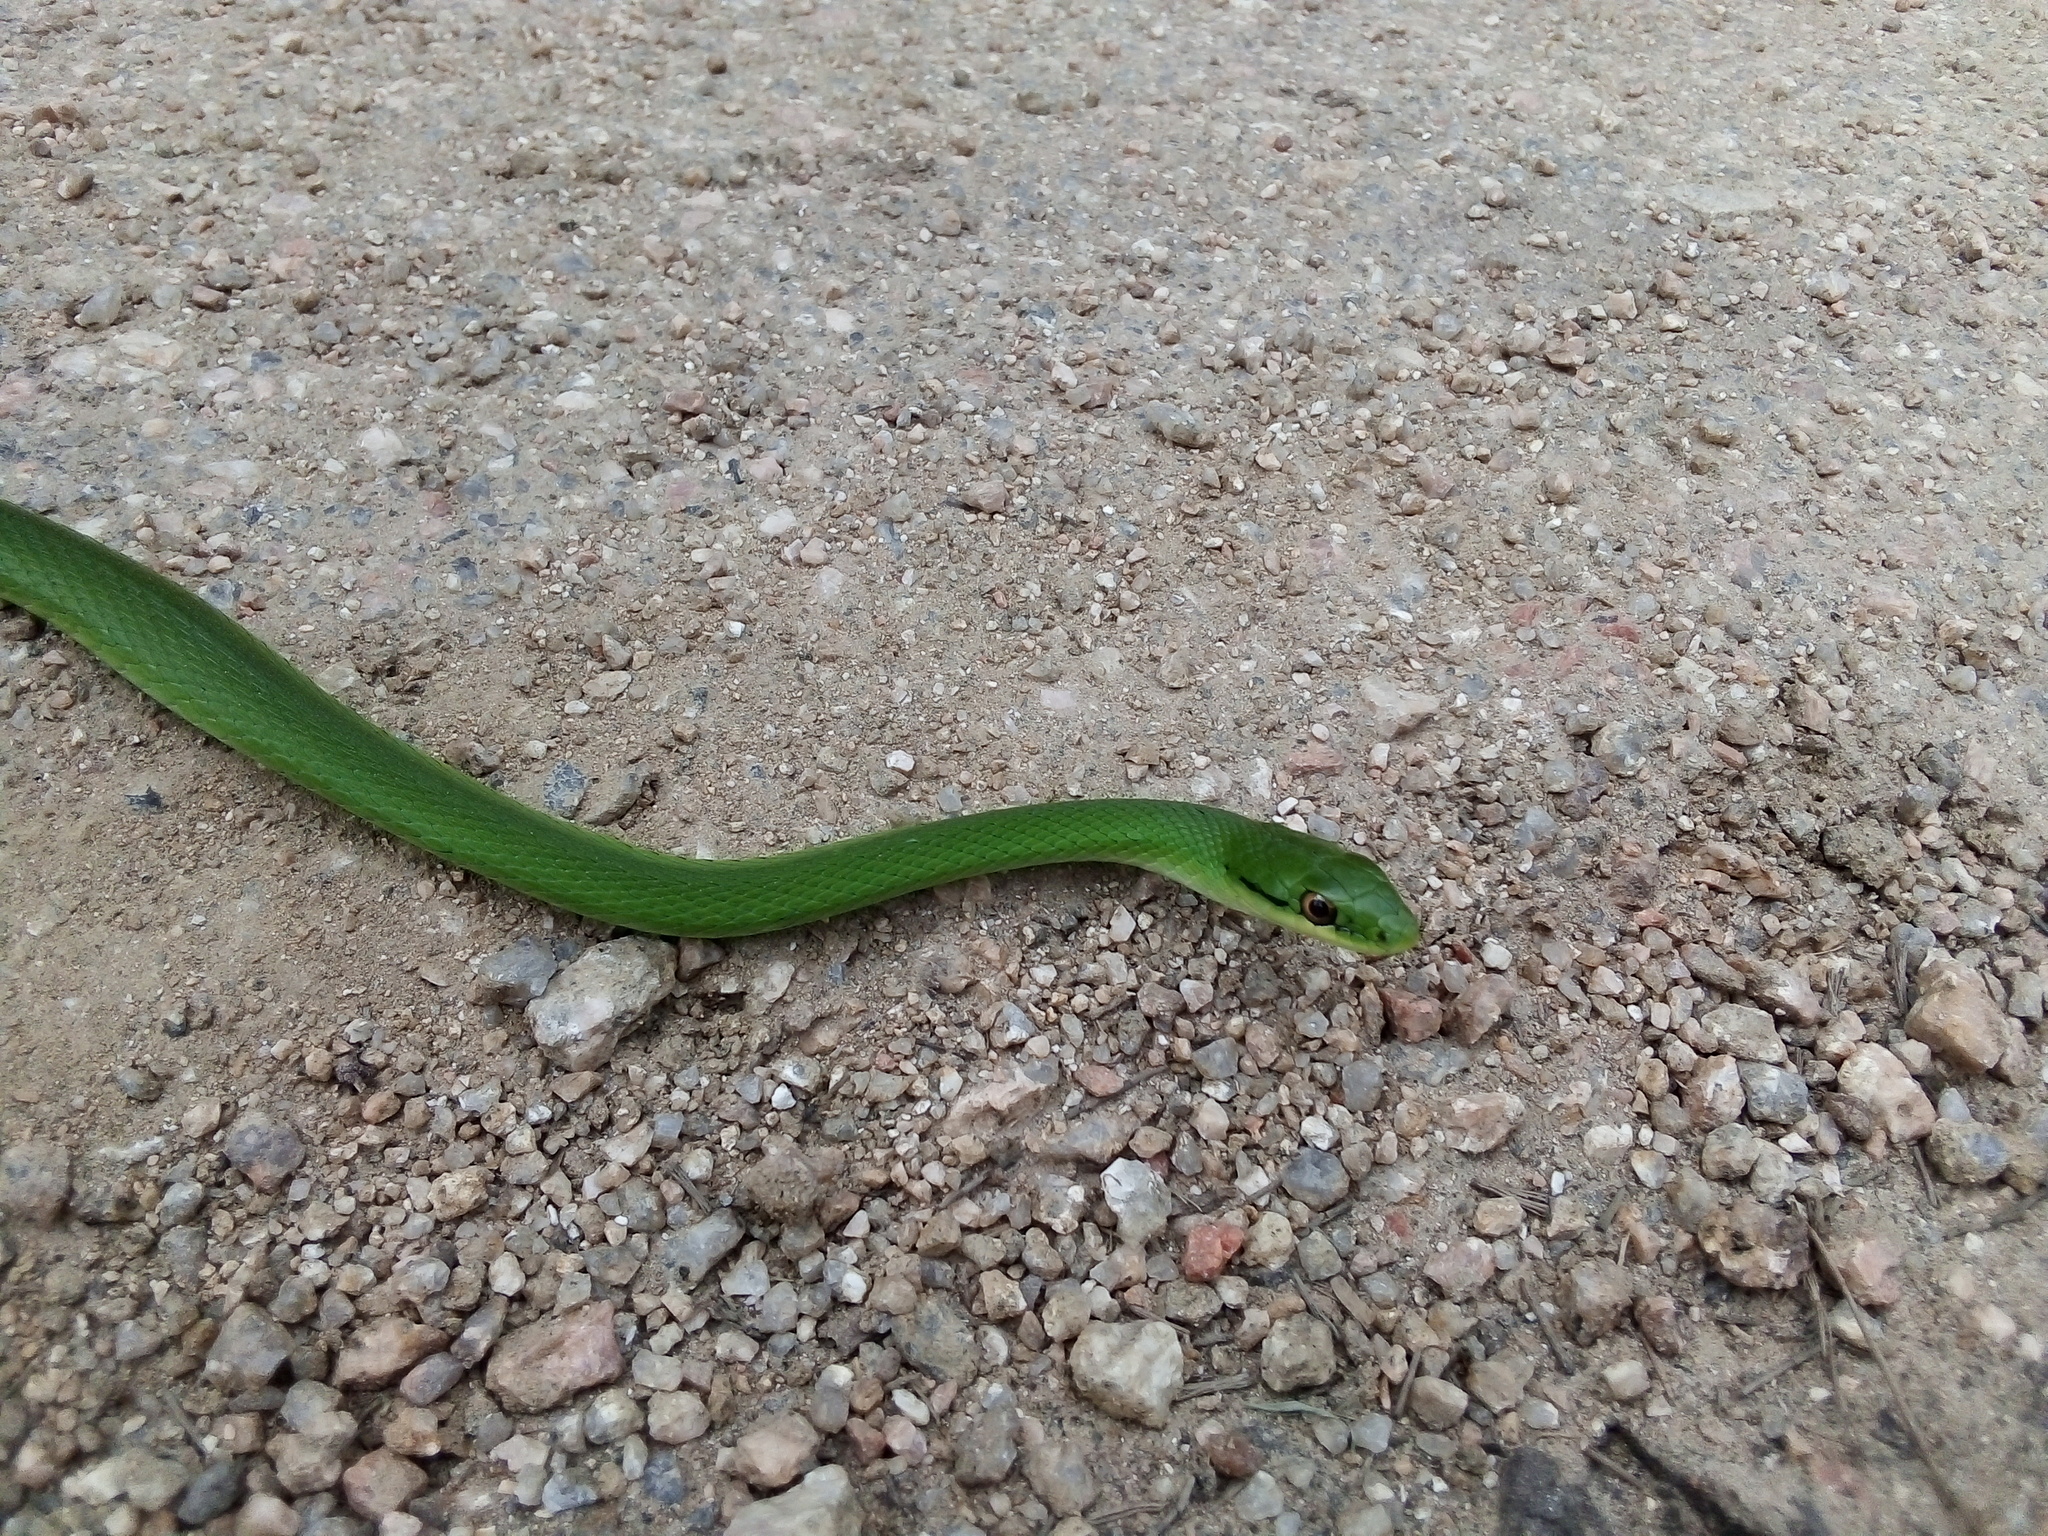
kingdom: Animalia
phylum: Chordata
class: Squamata
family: Colubridae
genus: Philodryas
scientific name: Philodryas aestiva
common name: Brazilian green racer
